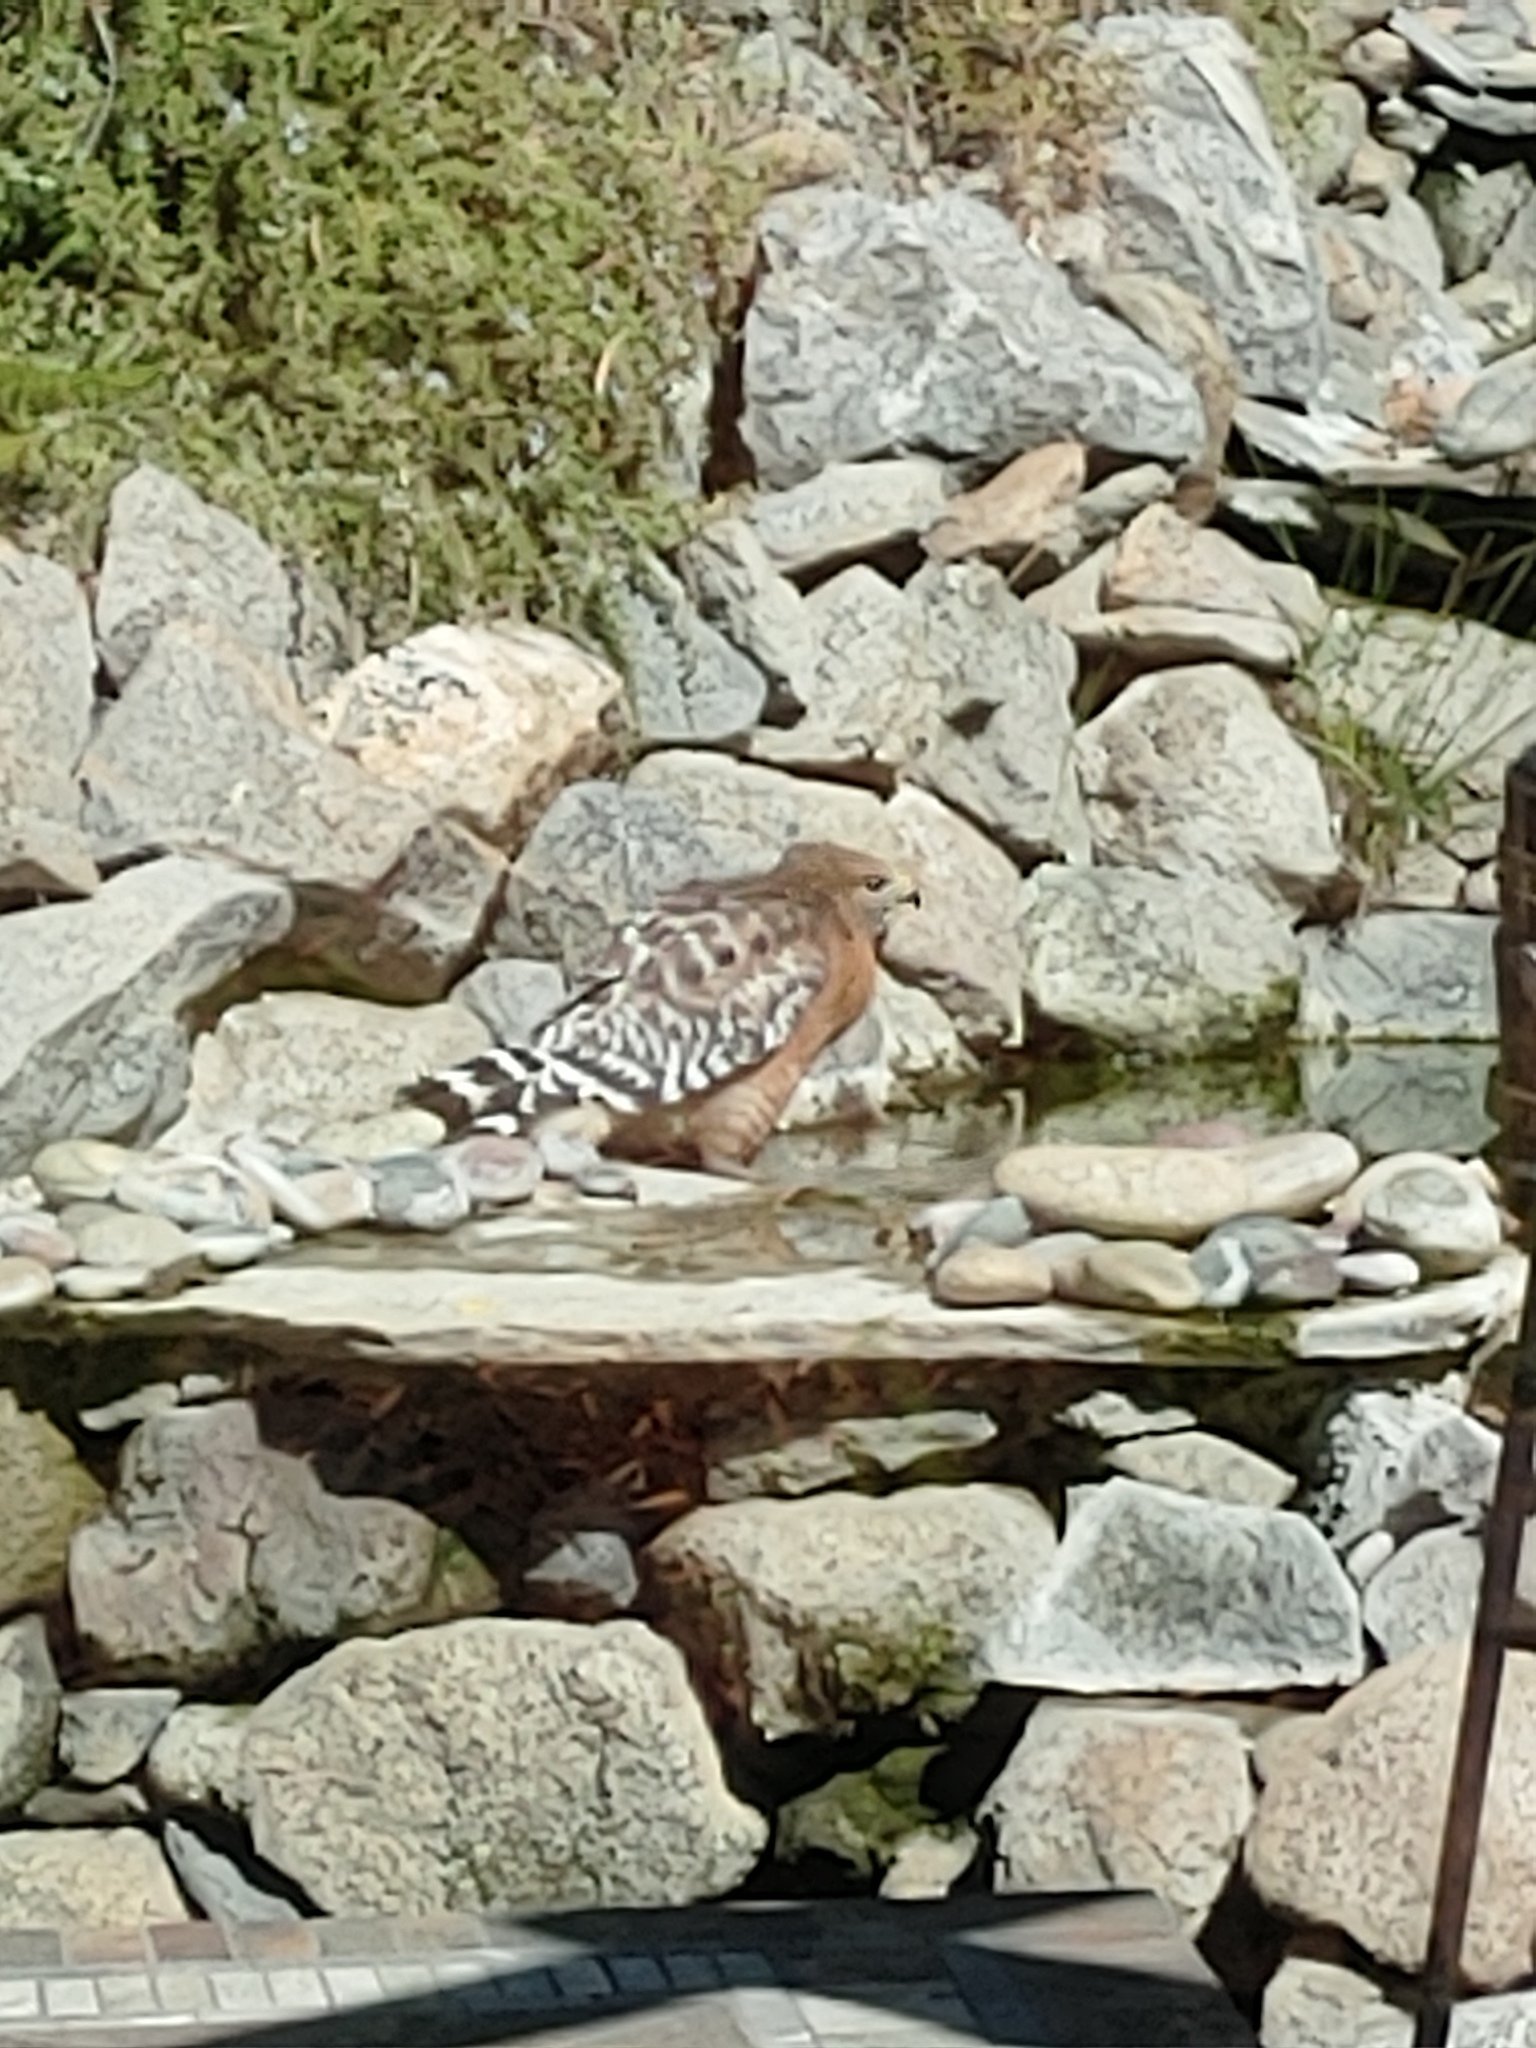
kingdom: Animalia
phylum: Chordata
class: Aves
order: Accipitriformes
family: Accipitridae
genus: Buteo
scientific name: Buteo lineatus
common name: Red-shouldered hawk
